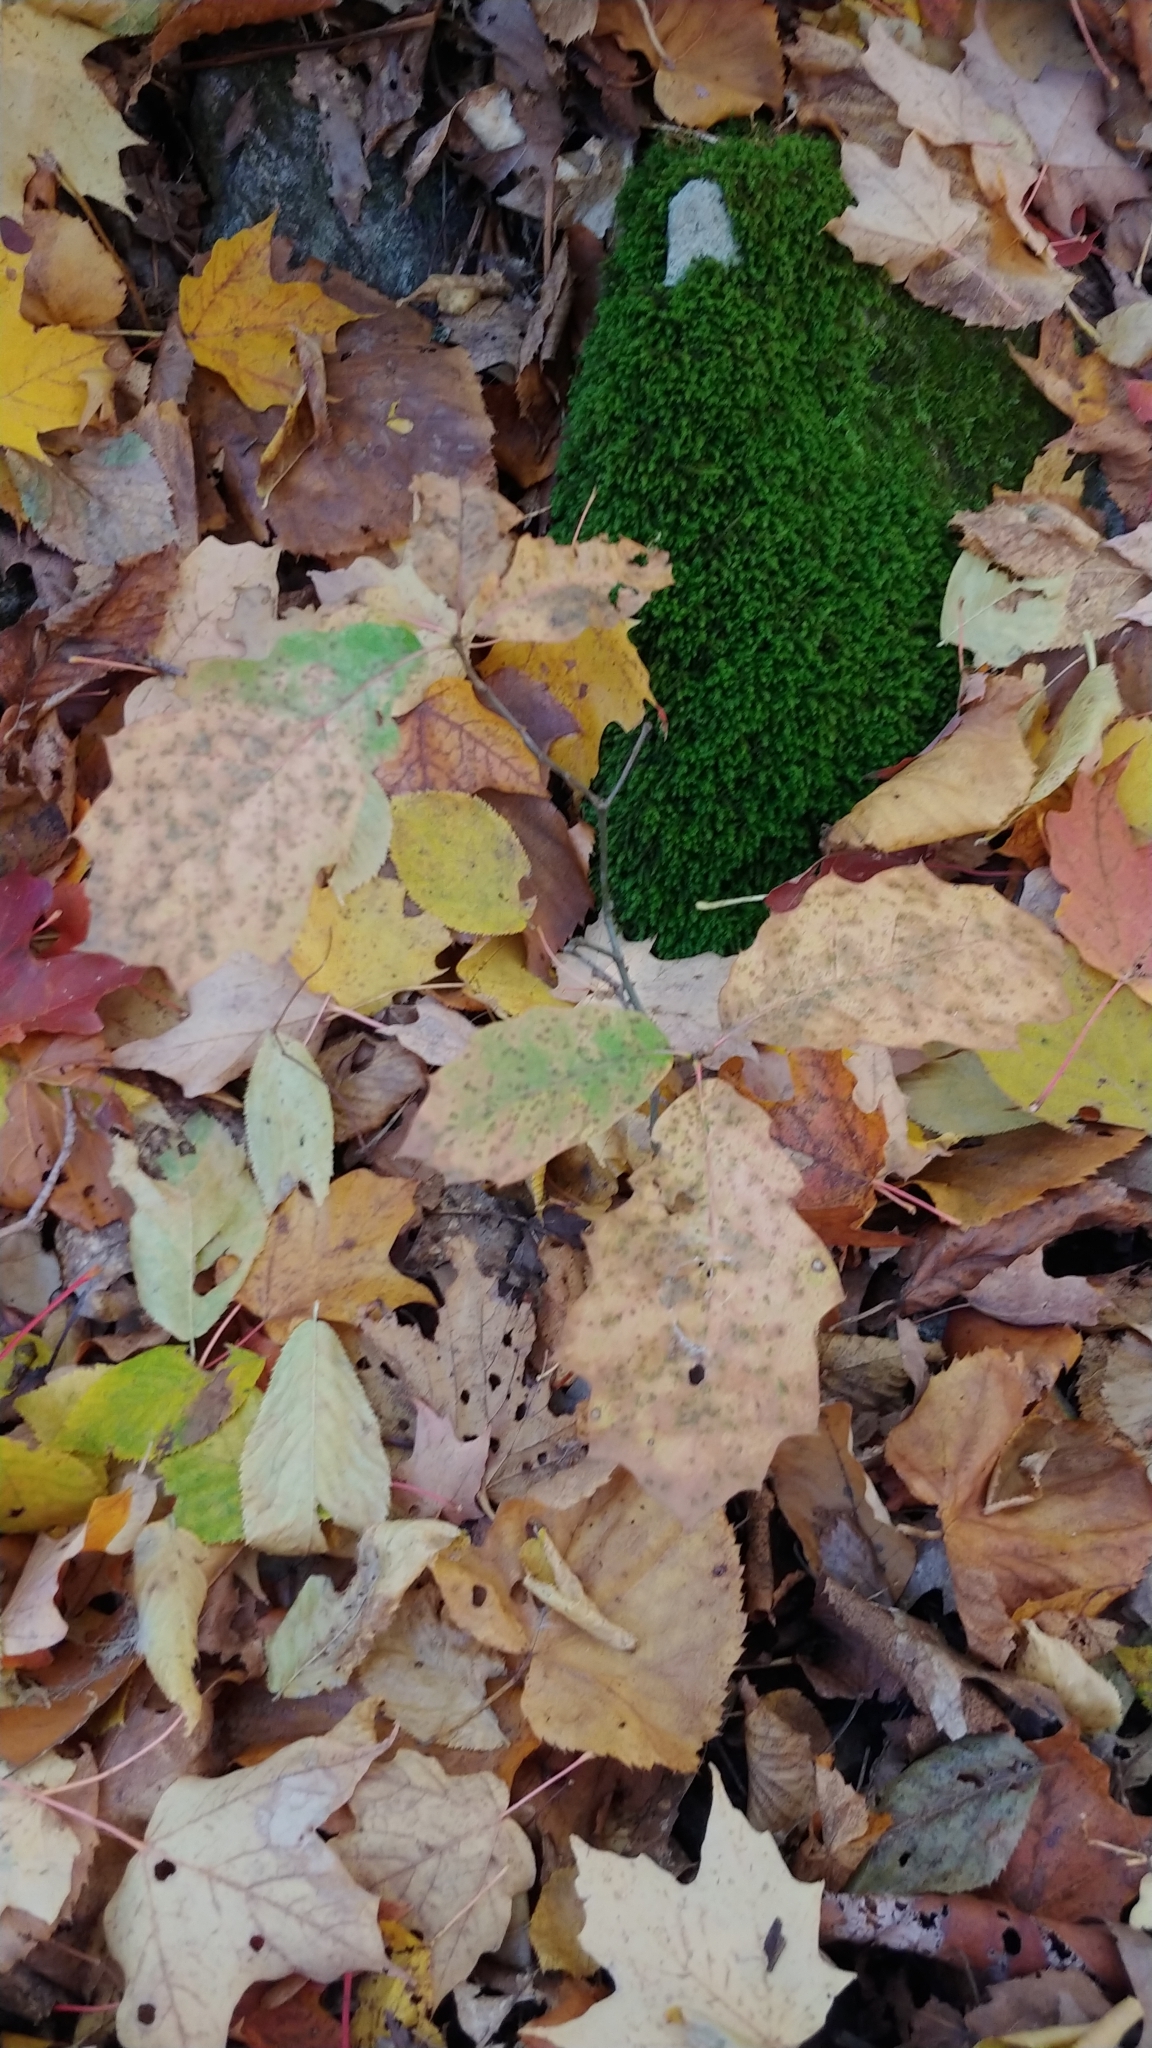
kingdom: Plantae
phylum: Tracheophyta
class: Magnoliopsida
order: Fagales
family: Fagaceae
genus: Quercus
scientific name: Quercus rubra
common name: Red oak
